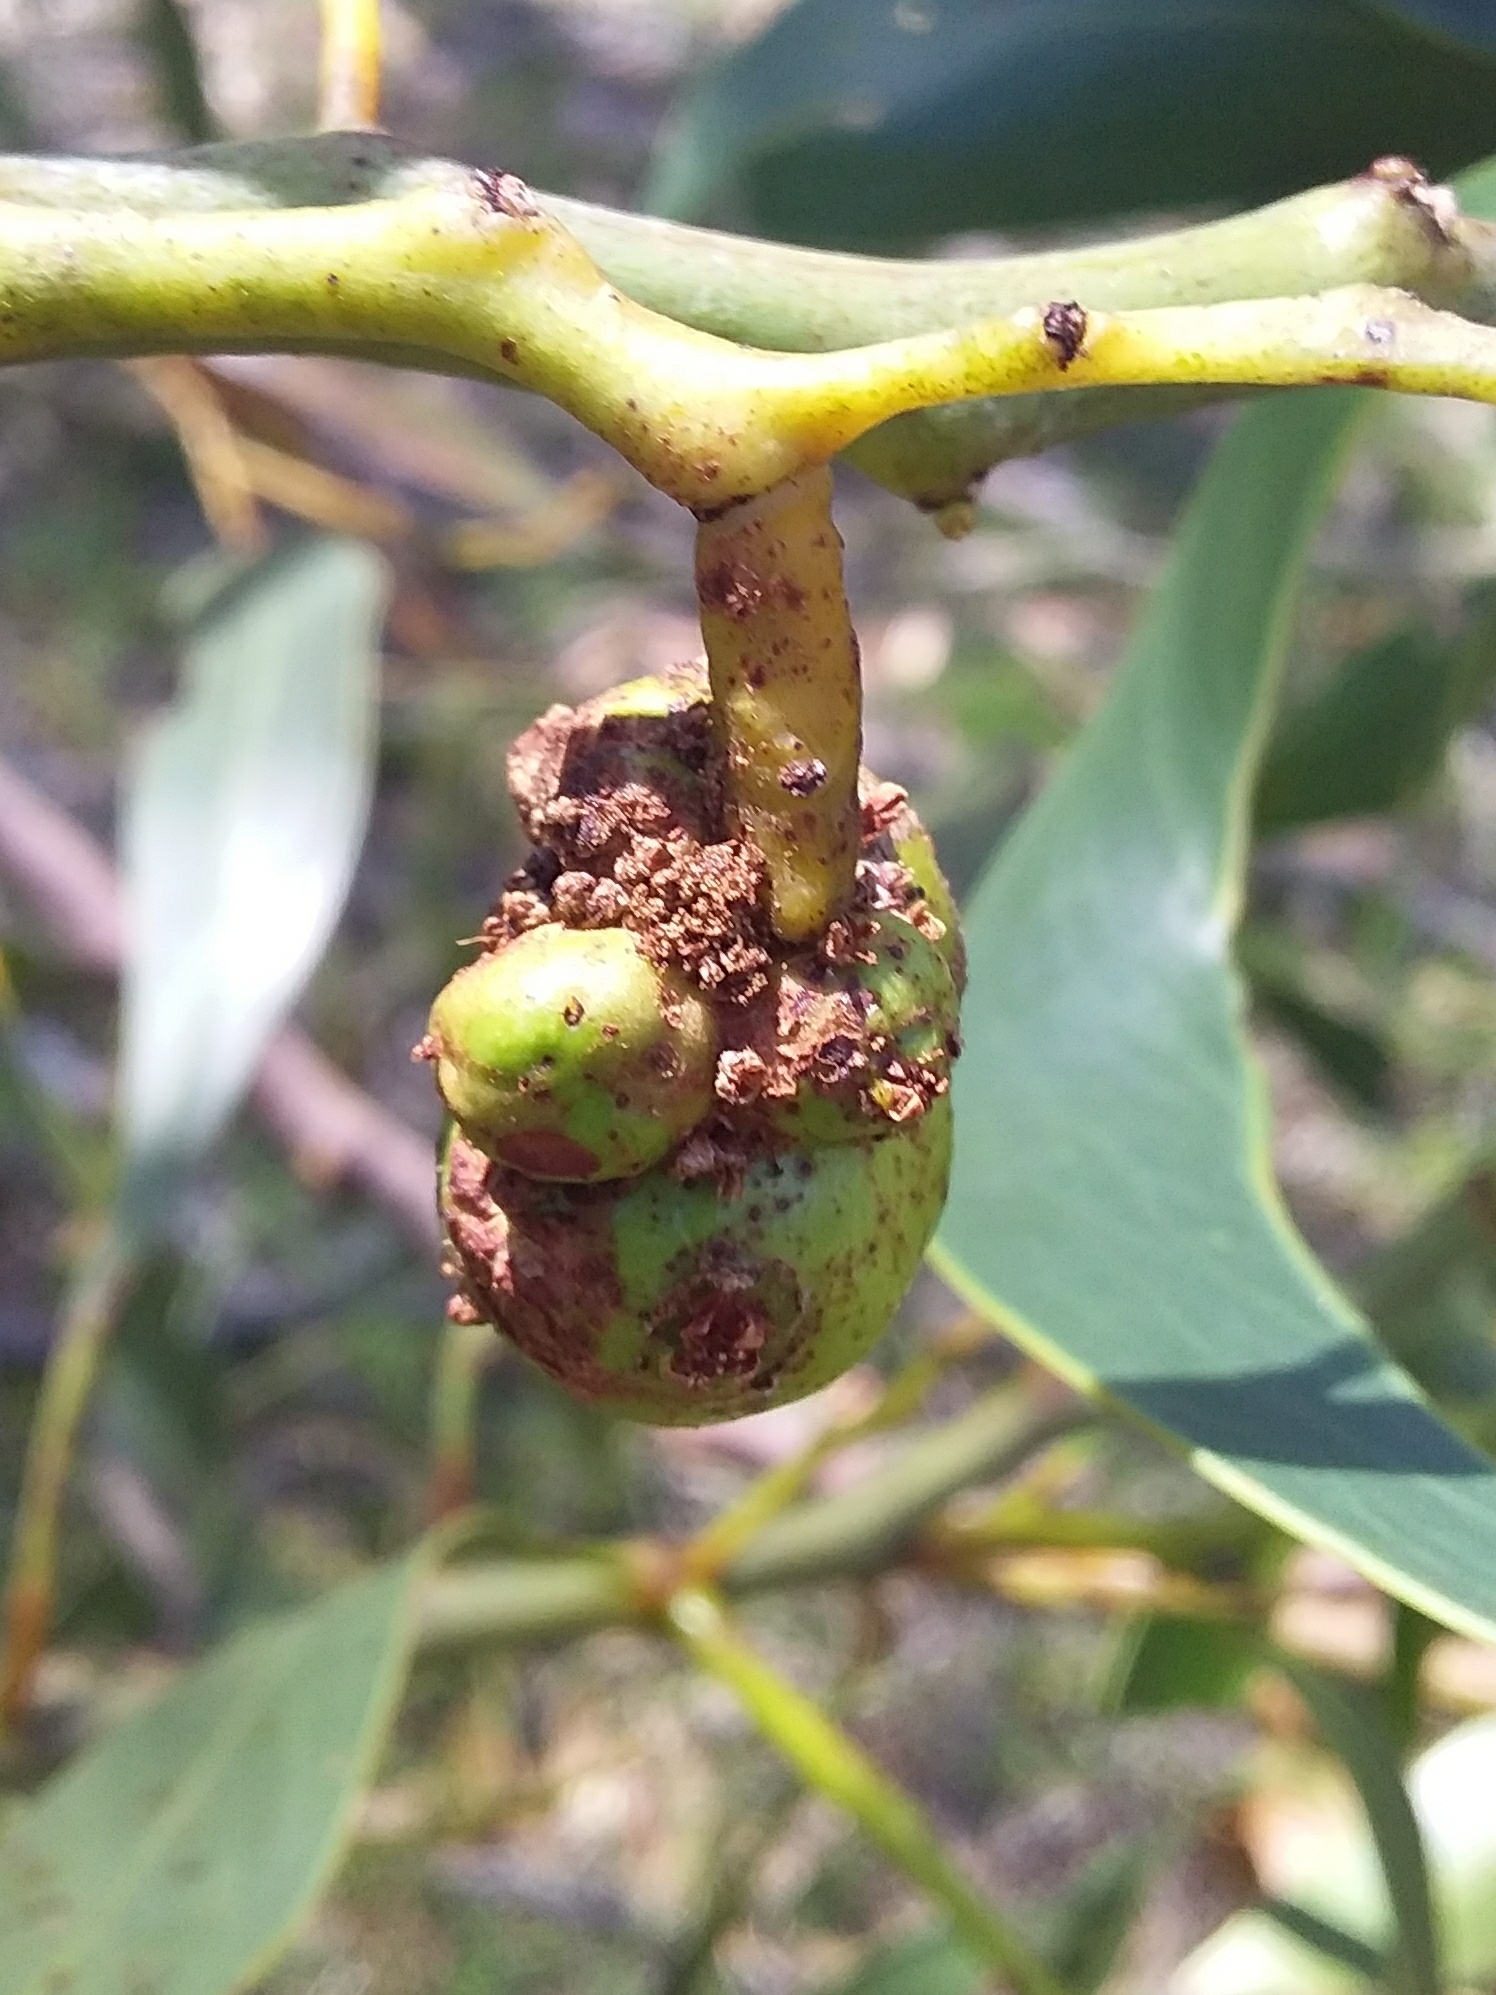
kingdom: Animalia
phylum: Arthropoda
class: Insecta
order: Hymenoptera
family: Pteromalidae
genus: Trichilogaster
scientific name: Trichilogaster signiventris
